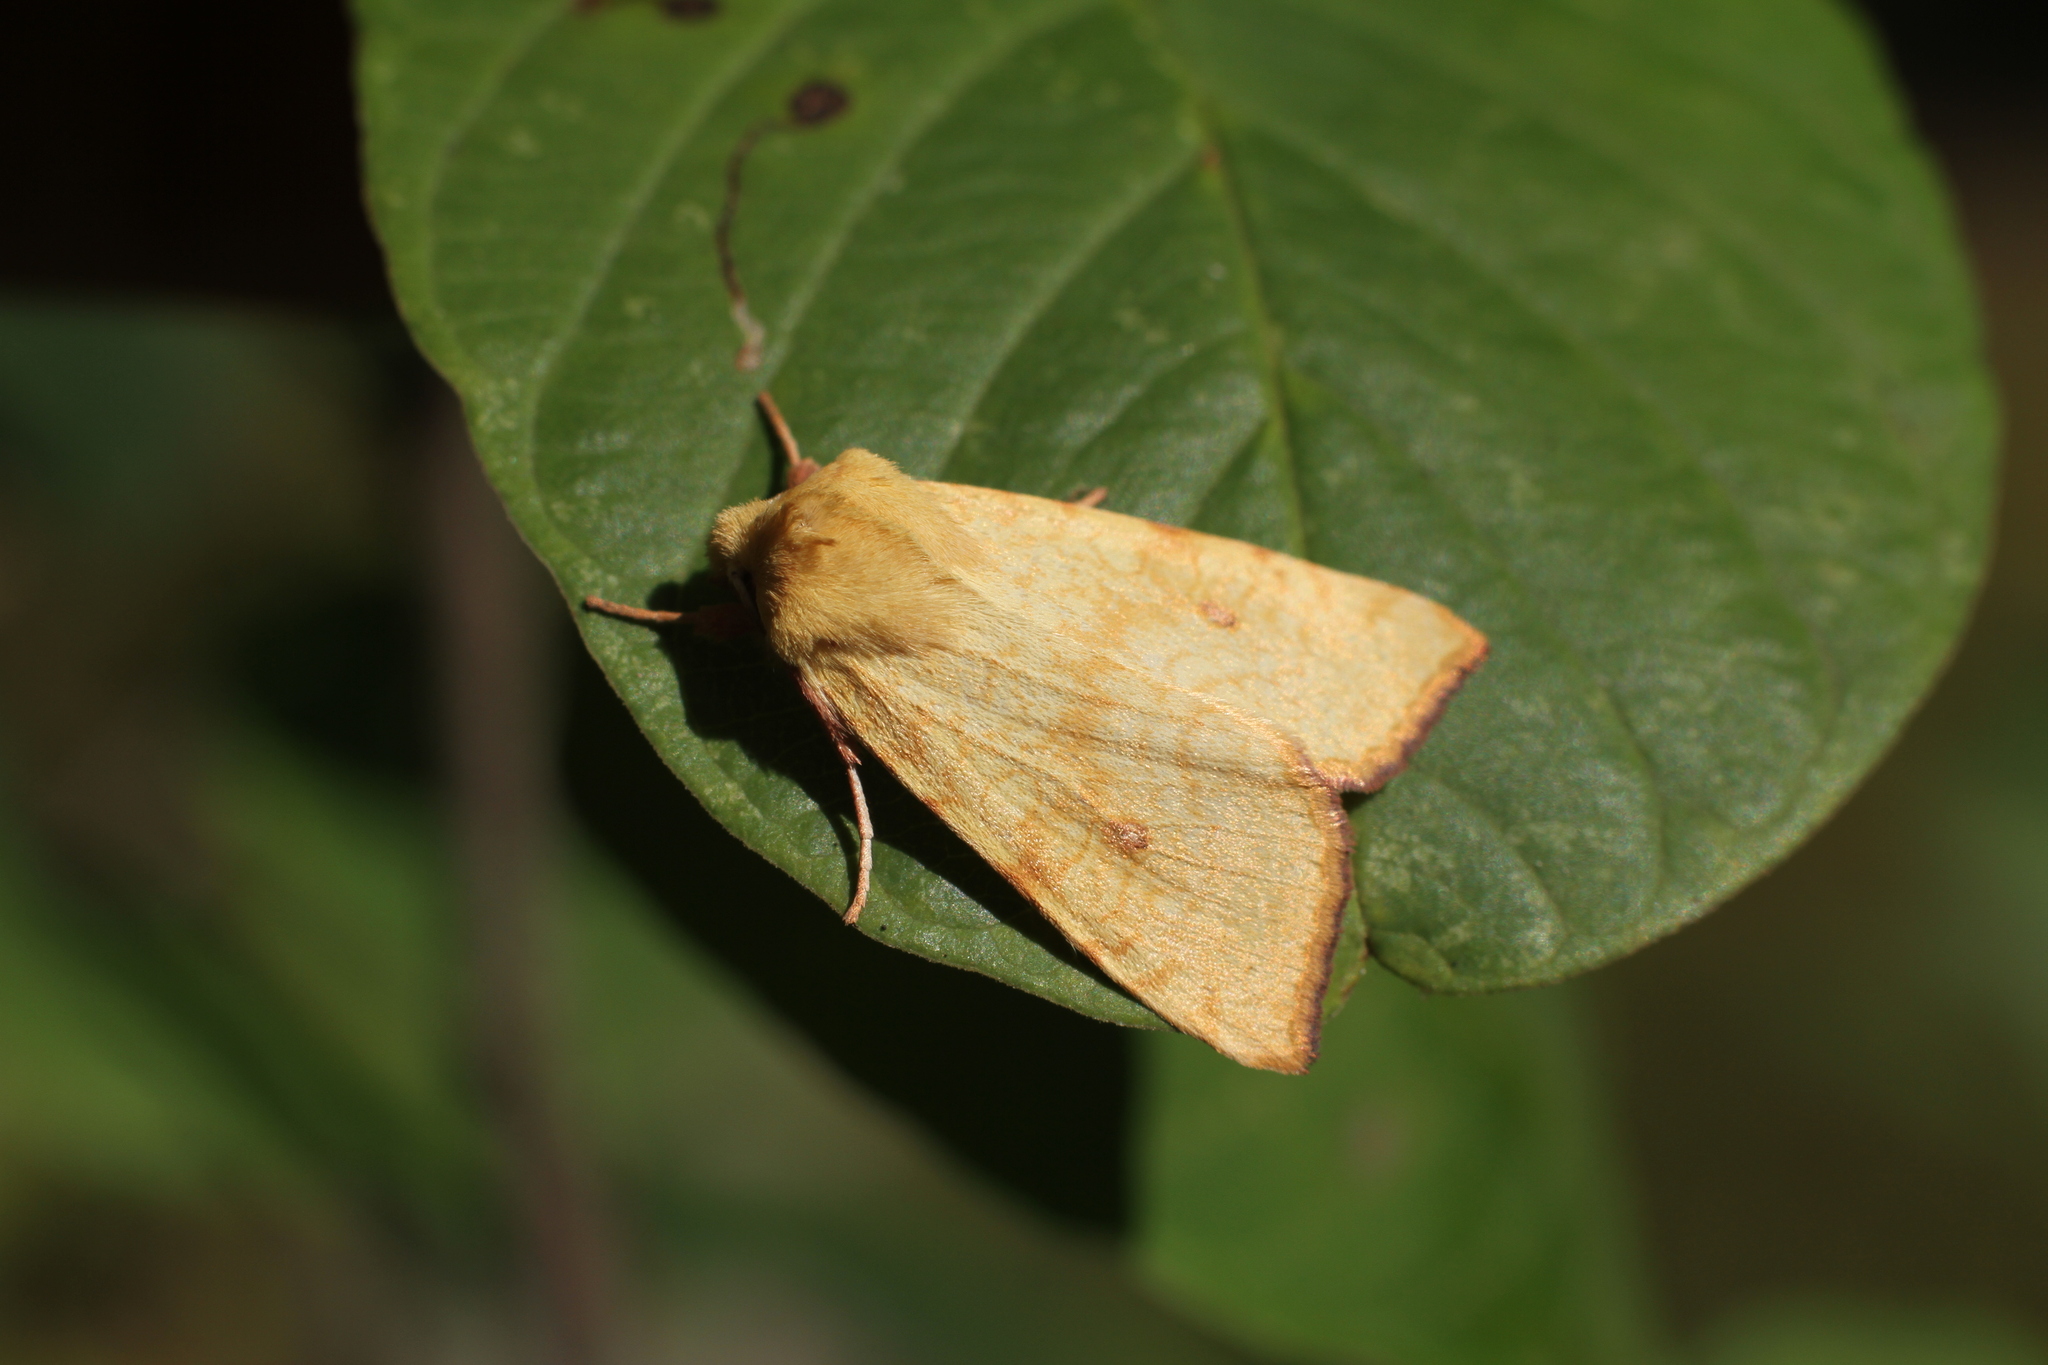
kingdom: Animalia
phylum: Arthropoda
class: Insecta
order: Lepidoptera
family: Noctuidae
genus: Xanthia
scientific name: Xanthia icteritia
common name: The sallow
